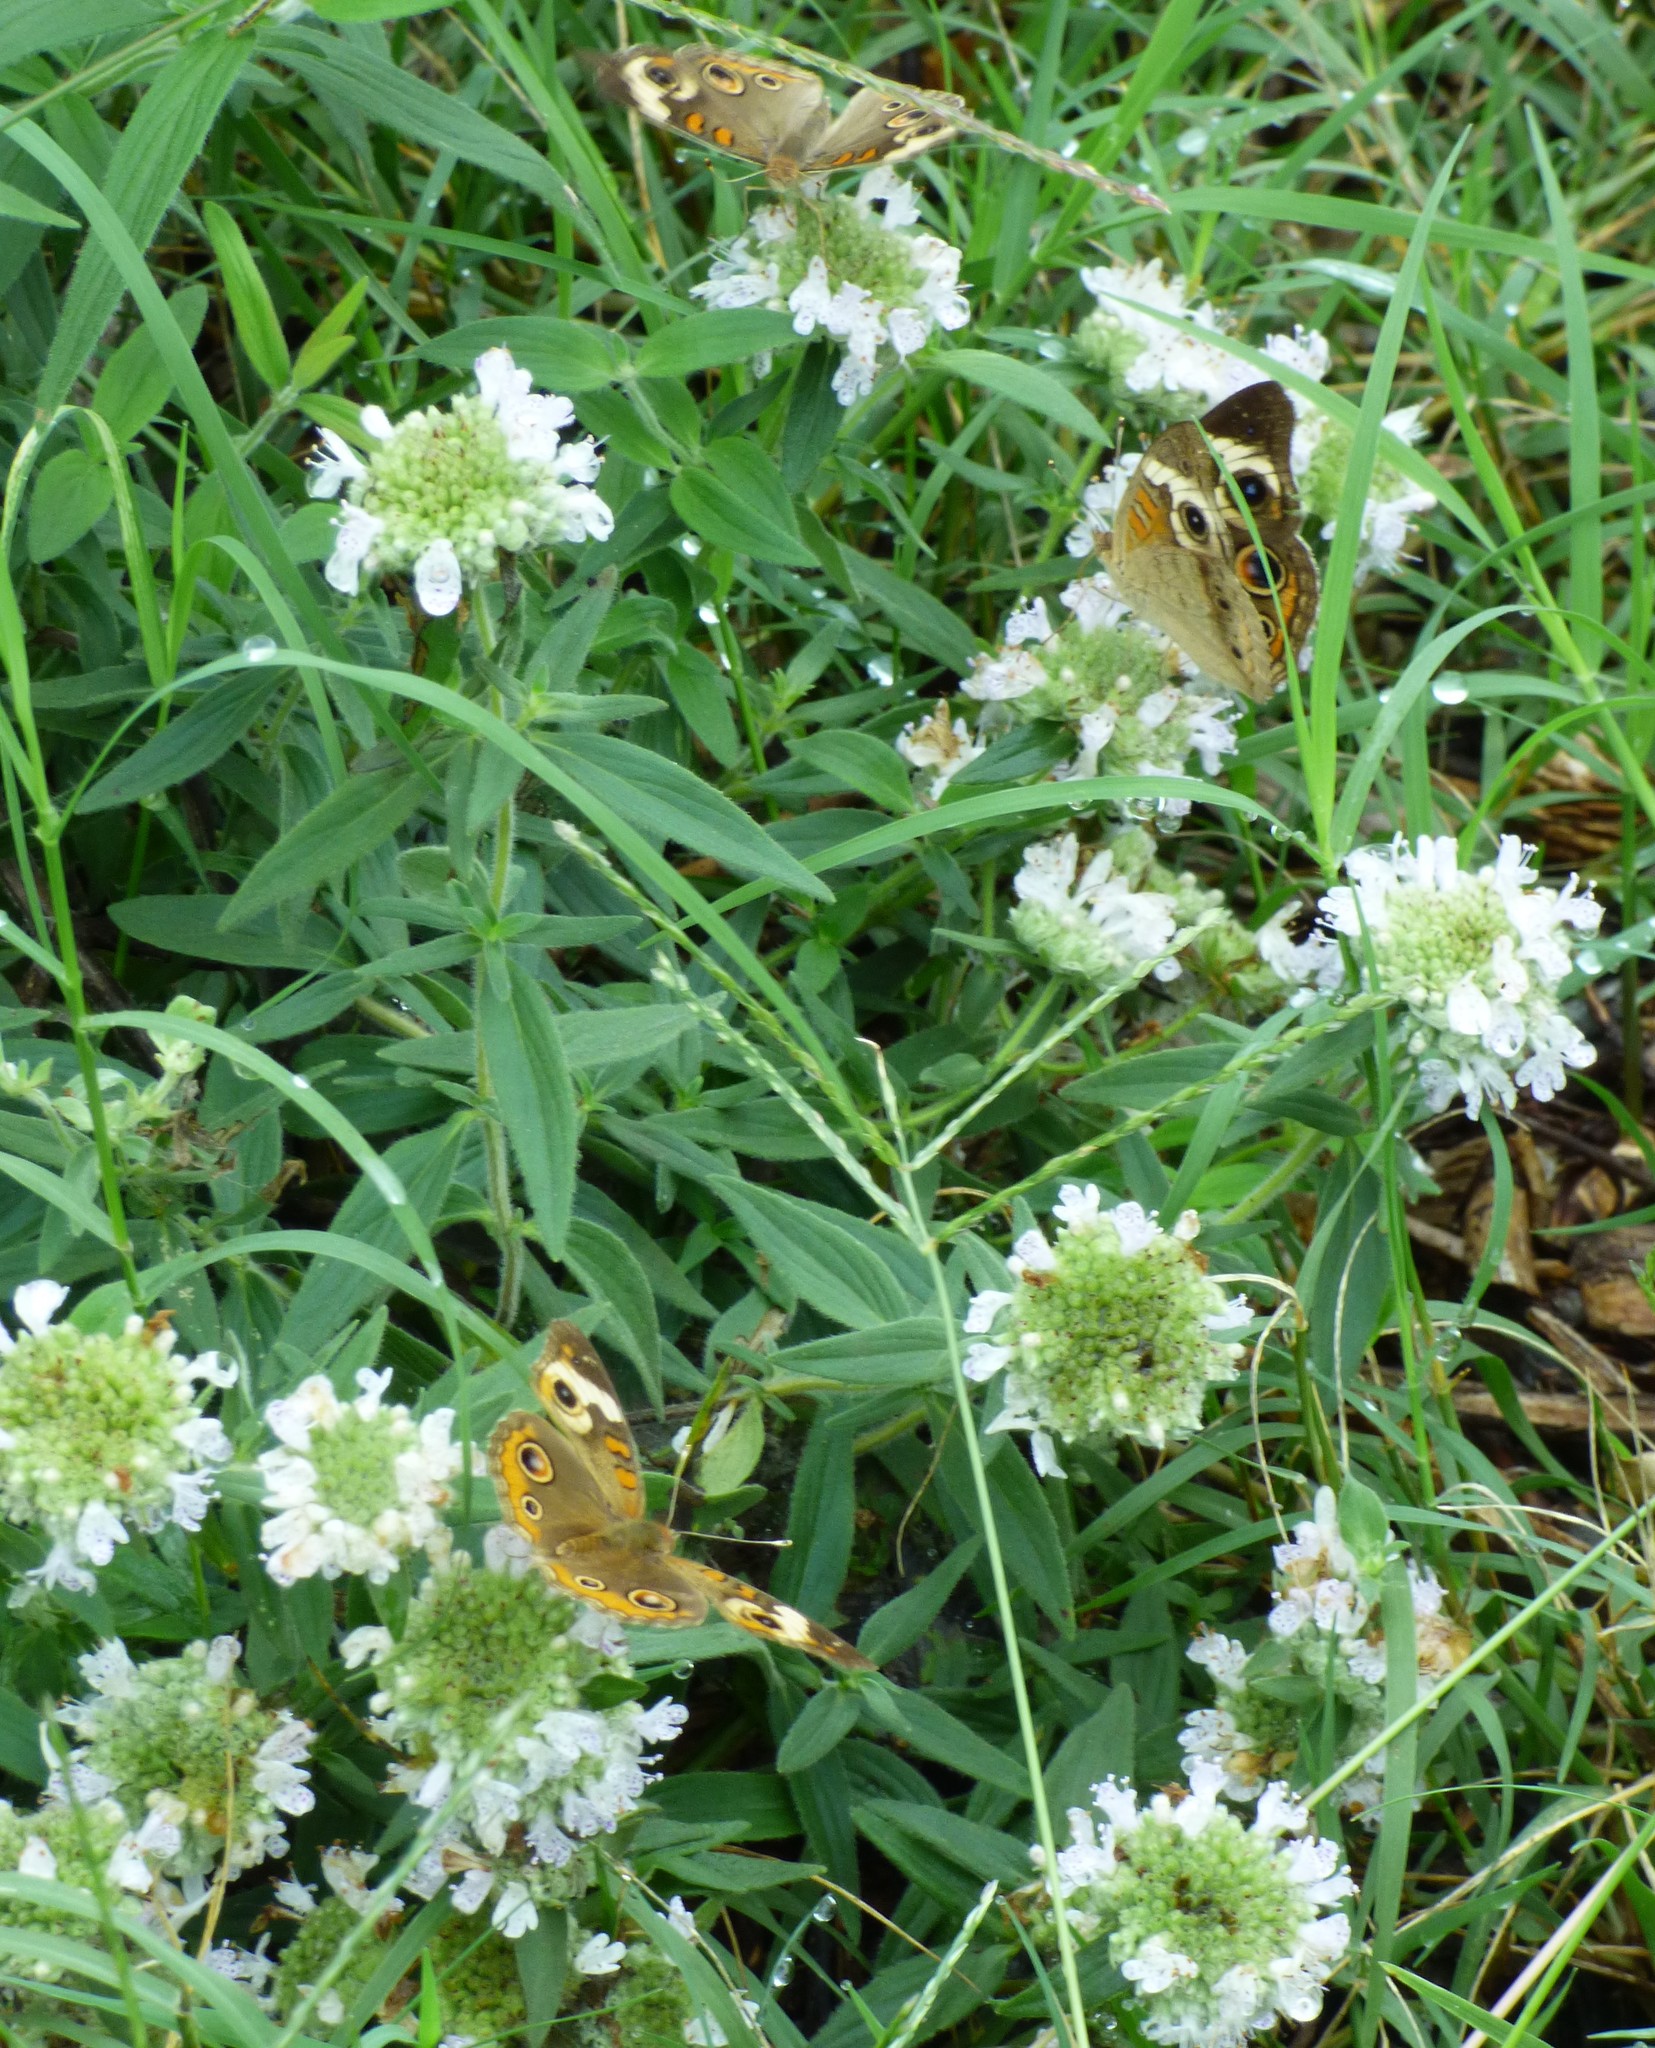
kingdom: Animalia
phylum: Arthropoda
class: Insecta
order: Lepidoptera
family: Nymphalidae
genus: Junonia
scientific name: Junonia coenia
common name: Common buckeye
